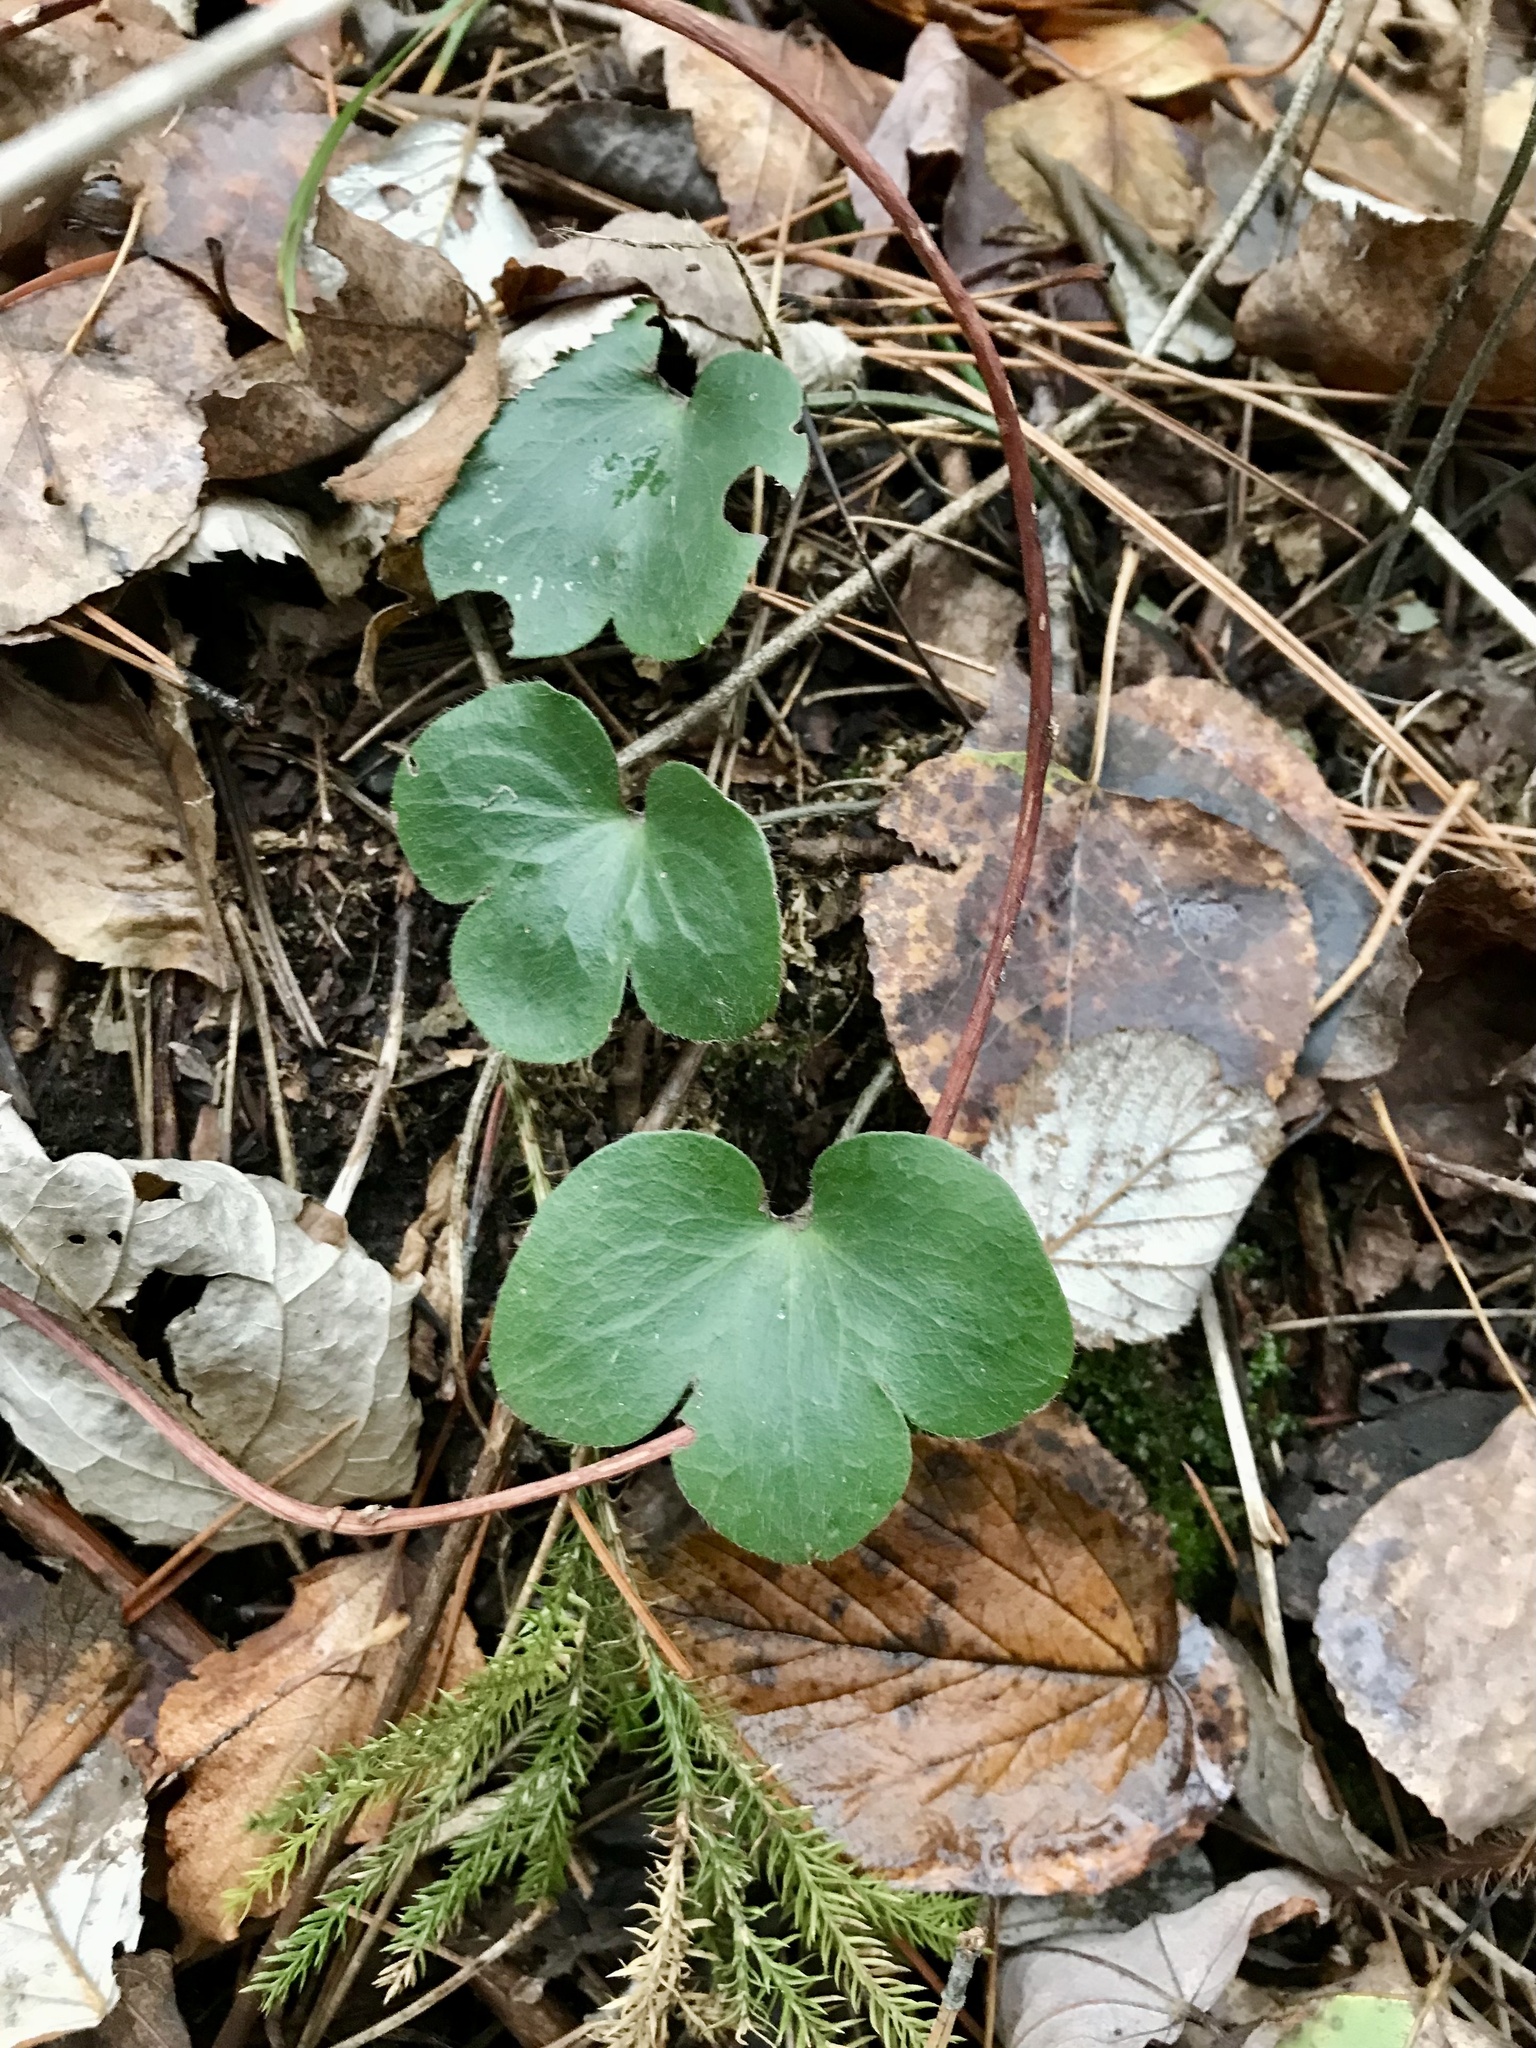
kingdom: Plantae
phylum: Tracheophyta
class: Magnoliopsida
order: Ranunculales
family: Ranunculaceae
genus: Hepatica
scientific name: Hepatica americana
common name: American hepatica
